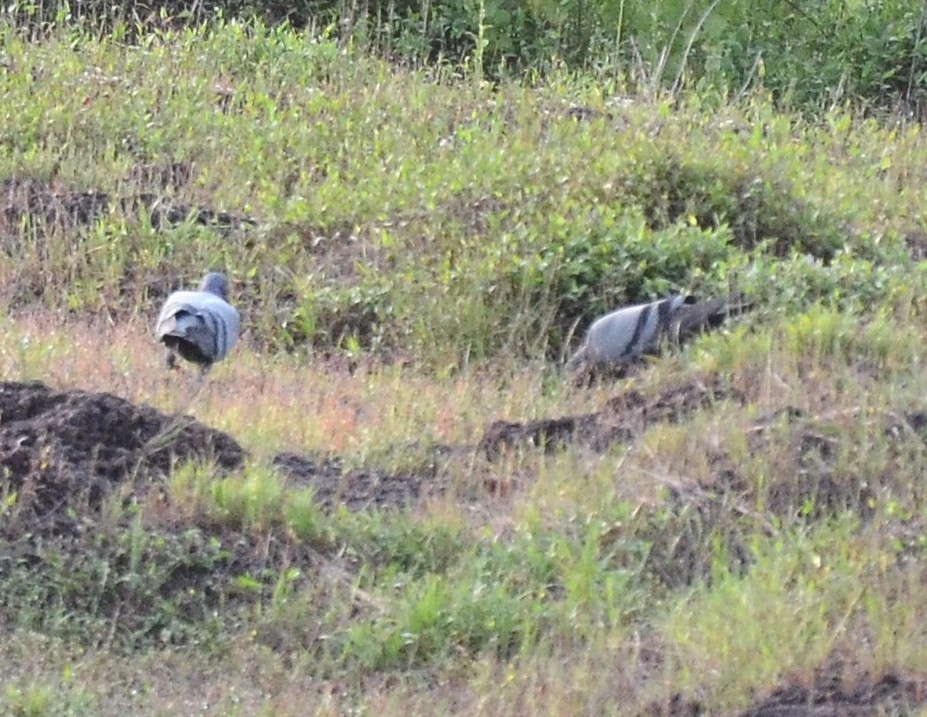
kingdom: Animalia
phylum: Chordata
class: Aves
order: Columbiformes
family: Columbidae
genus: Columba
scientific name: Columba livia
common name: Rock pigeon
